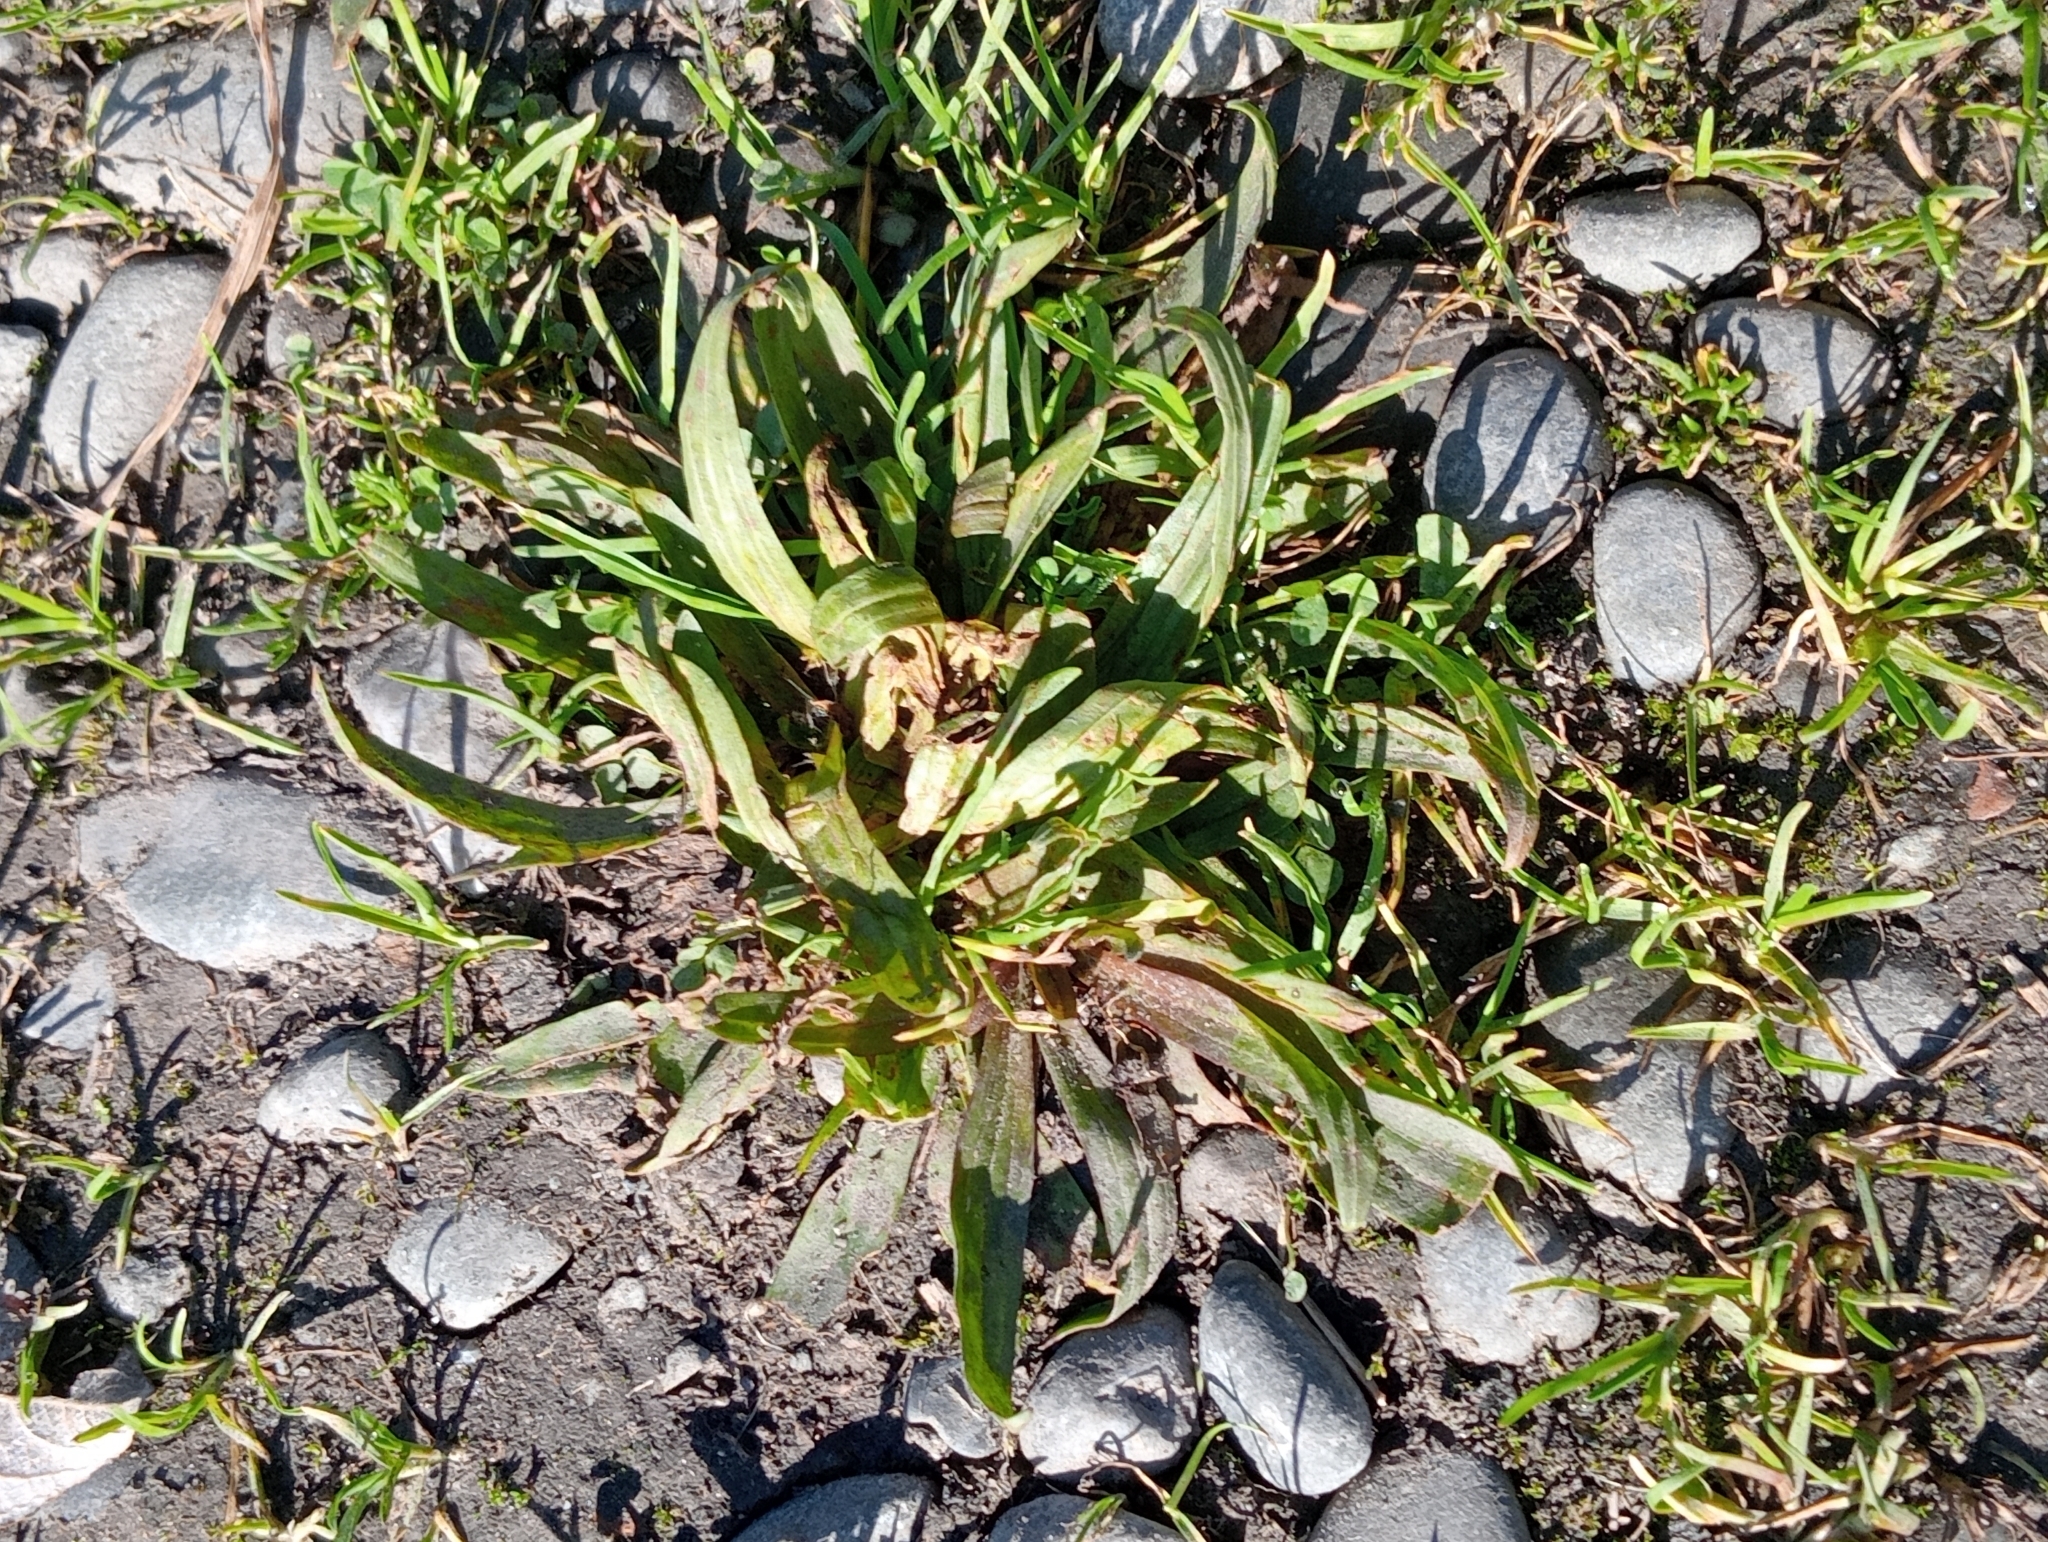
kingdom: Plantae
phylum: Tracheophyta
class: Magnoliopsida
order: Lamiales
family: Plantaginaceae
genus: Plantago
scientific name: Plantago lanceolata
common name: Ribwort plantain
